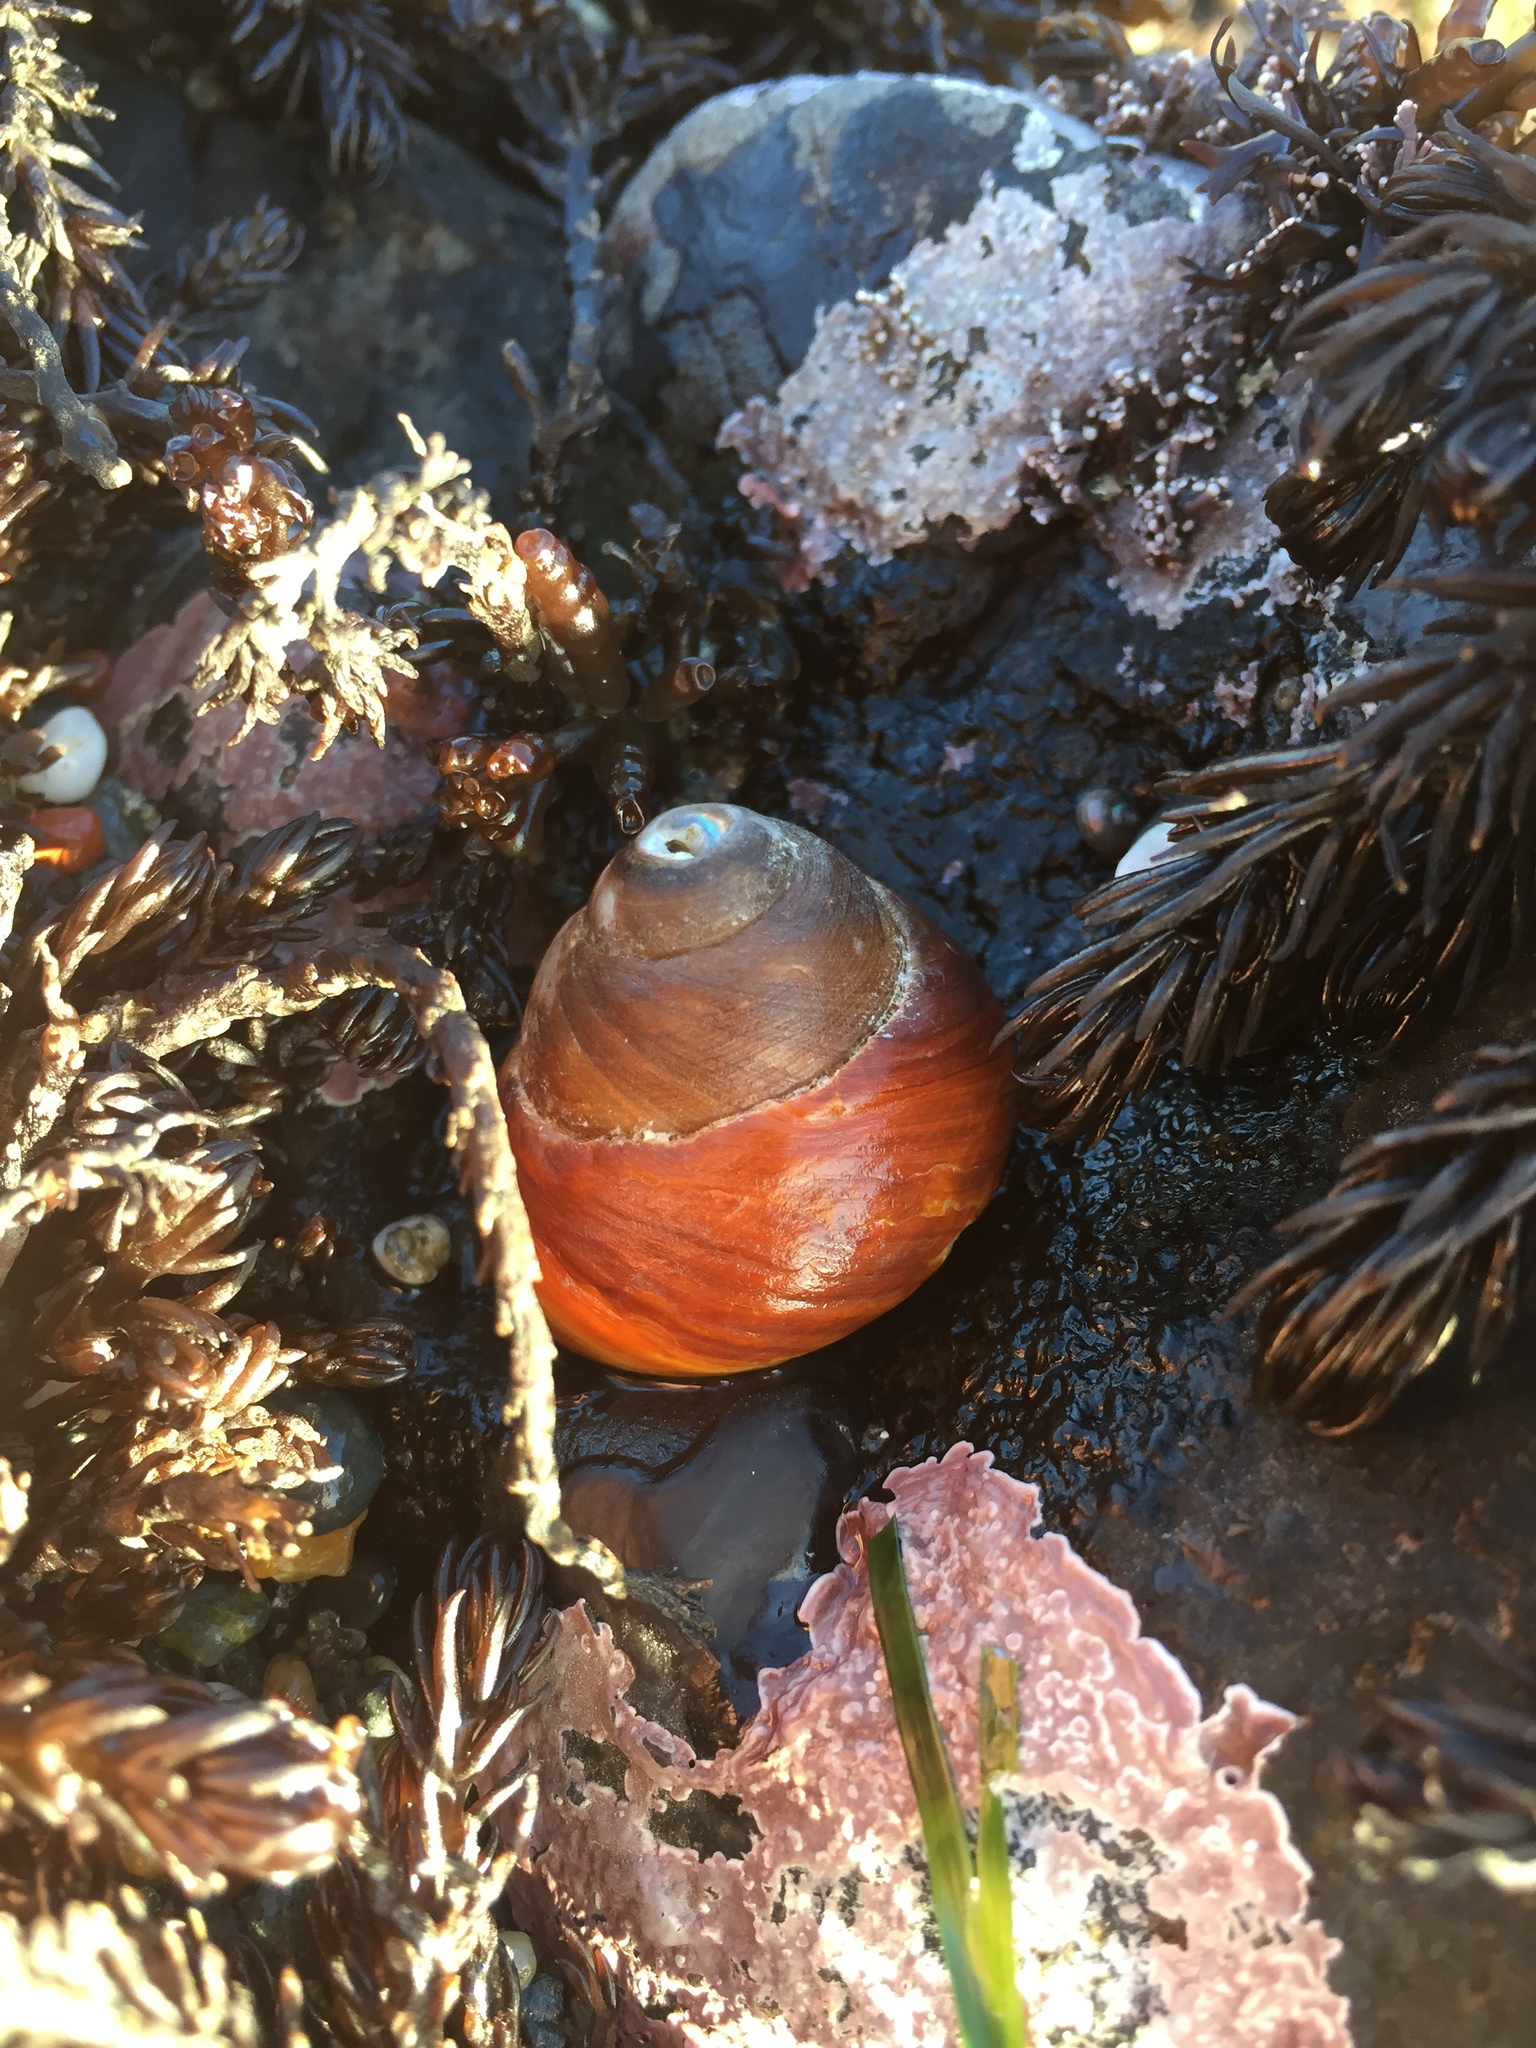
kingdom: Animalia
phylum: Mollusca
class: Gastropoda
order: Trochida
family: Tegulidae
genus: Tegula
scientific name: Tegula brunnea
